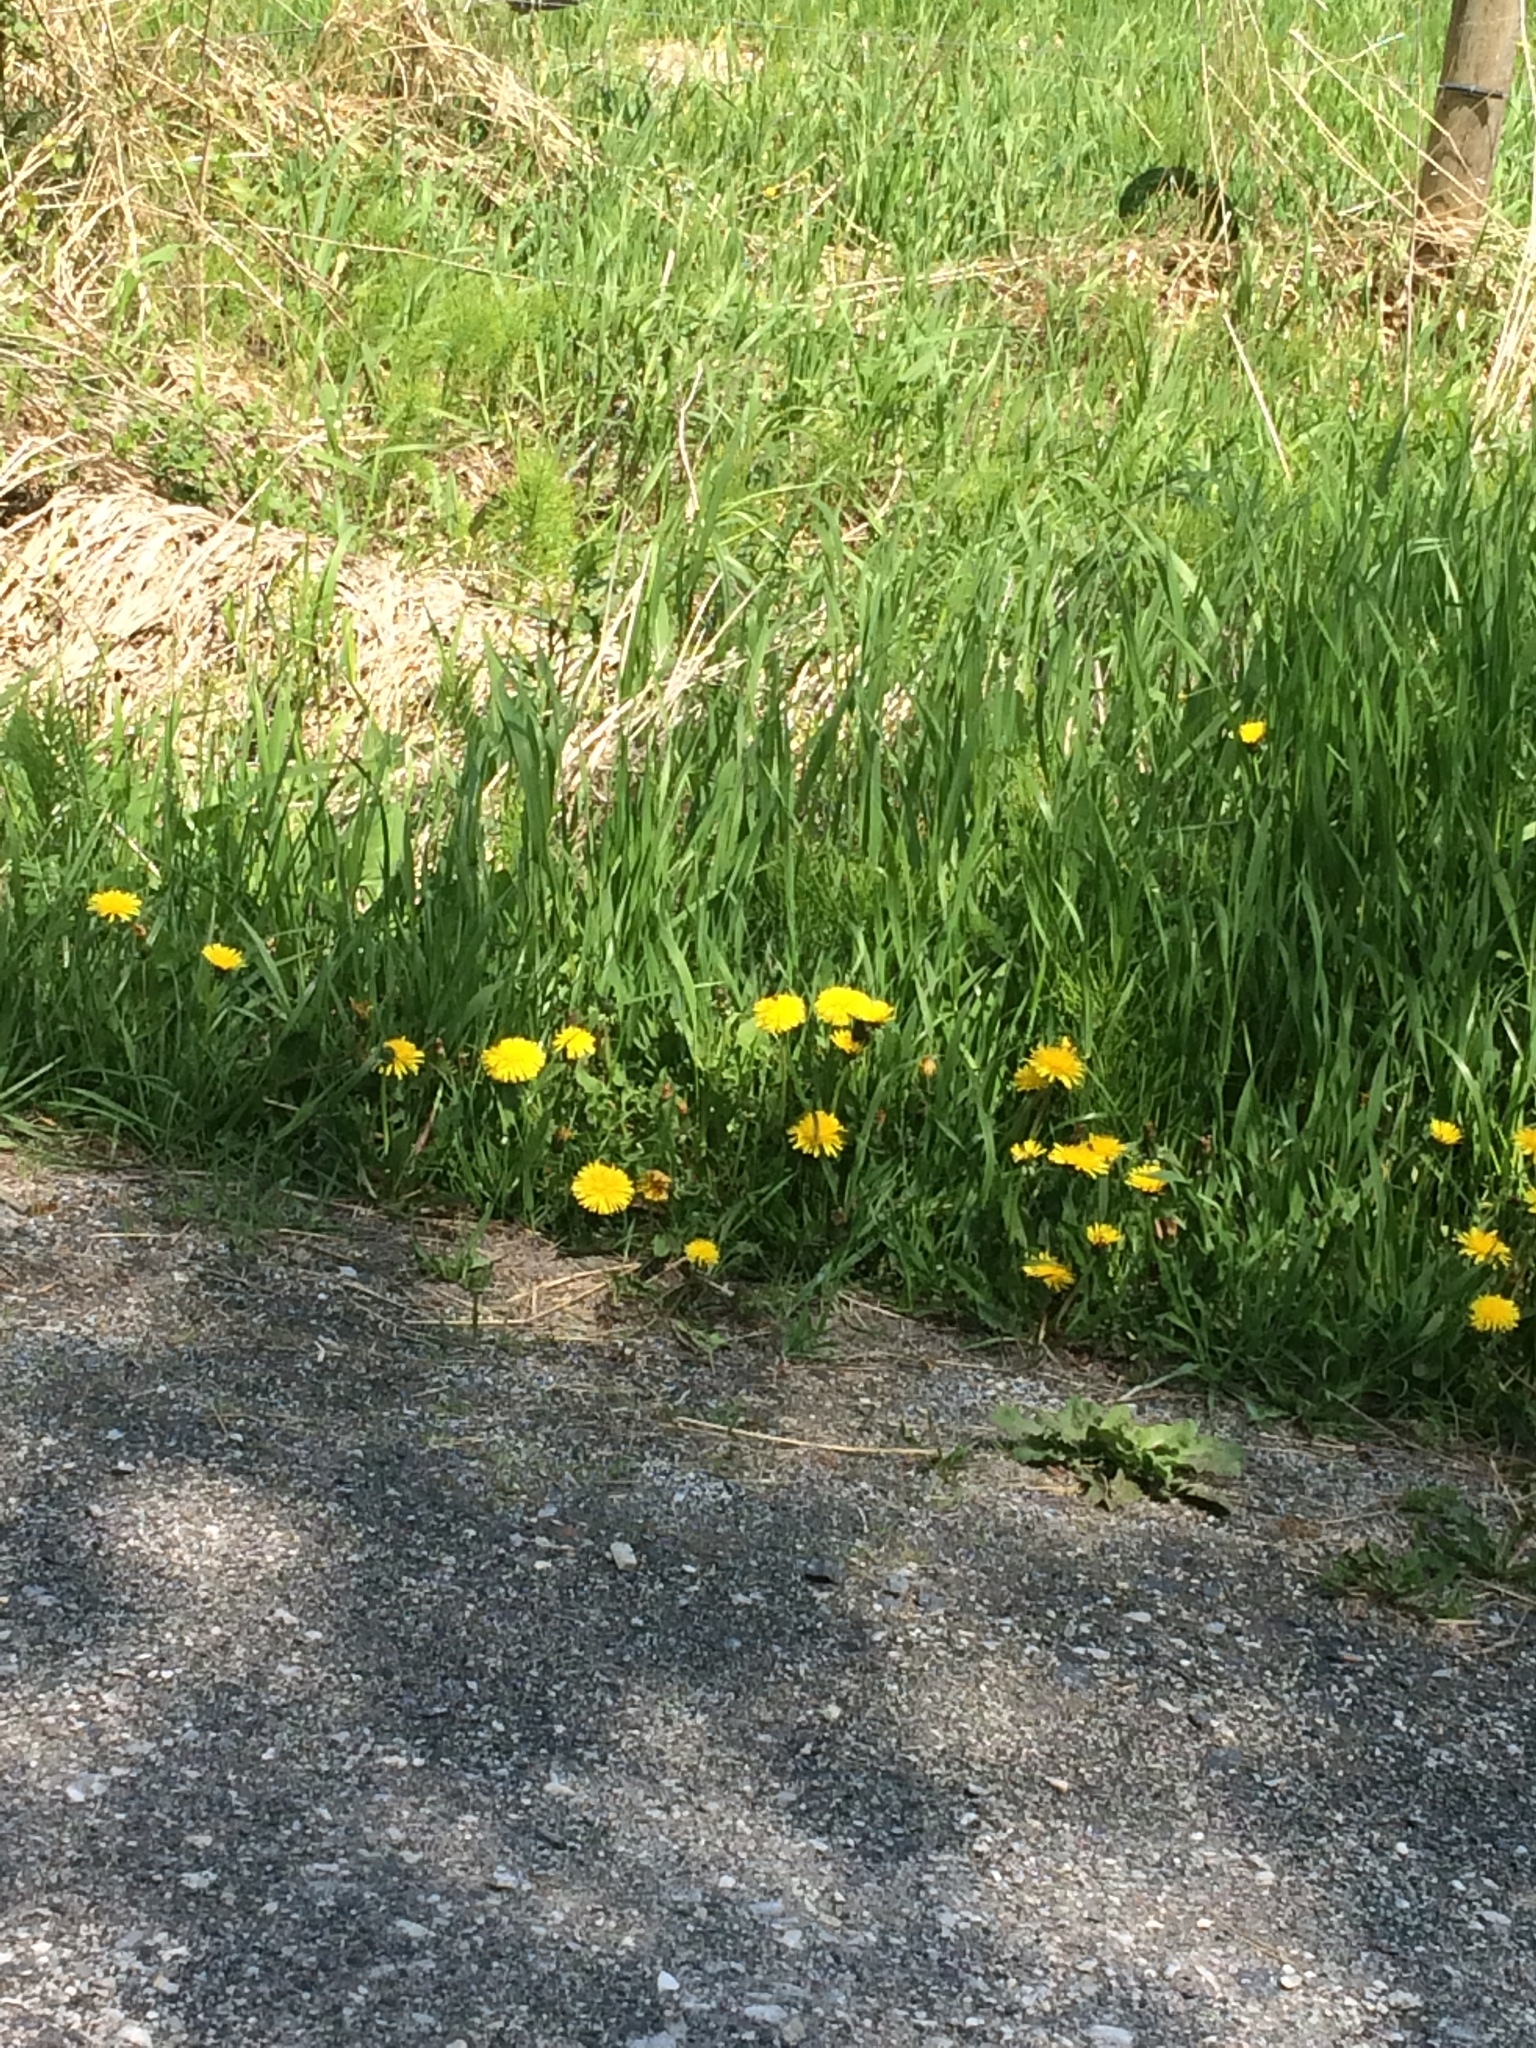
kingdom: Plantae
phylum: Tracheophyta
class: Magnoliopsida
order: Asterales
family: Asteraceae
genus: Taraxacum
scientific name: Taraxacum officinale
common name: Common dandelion
